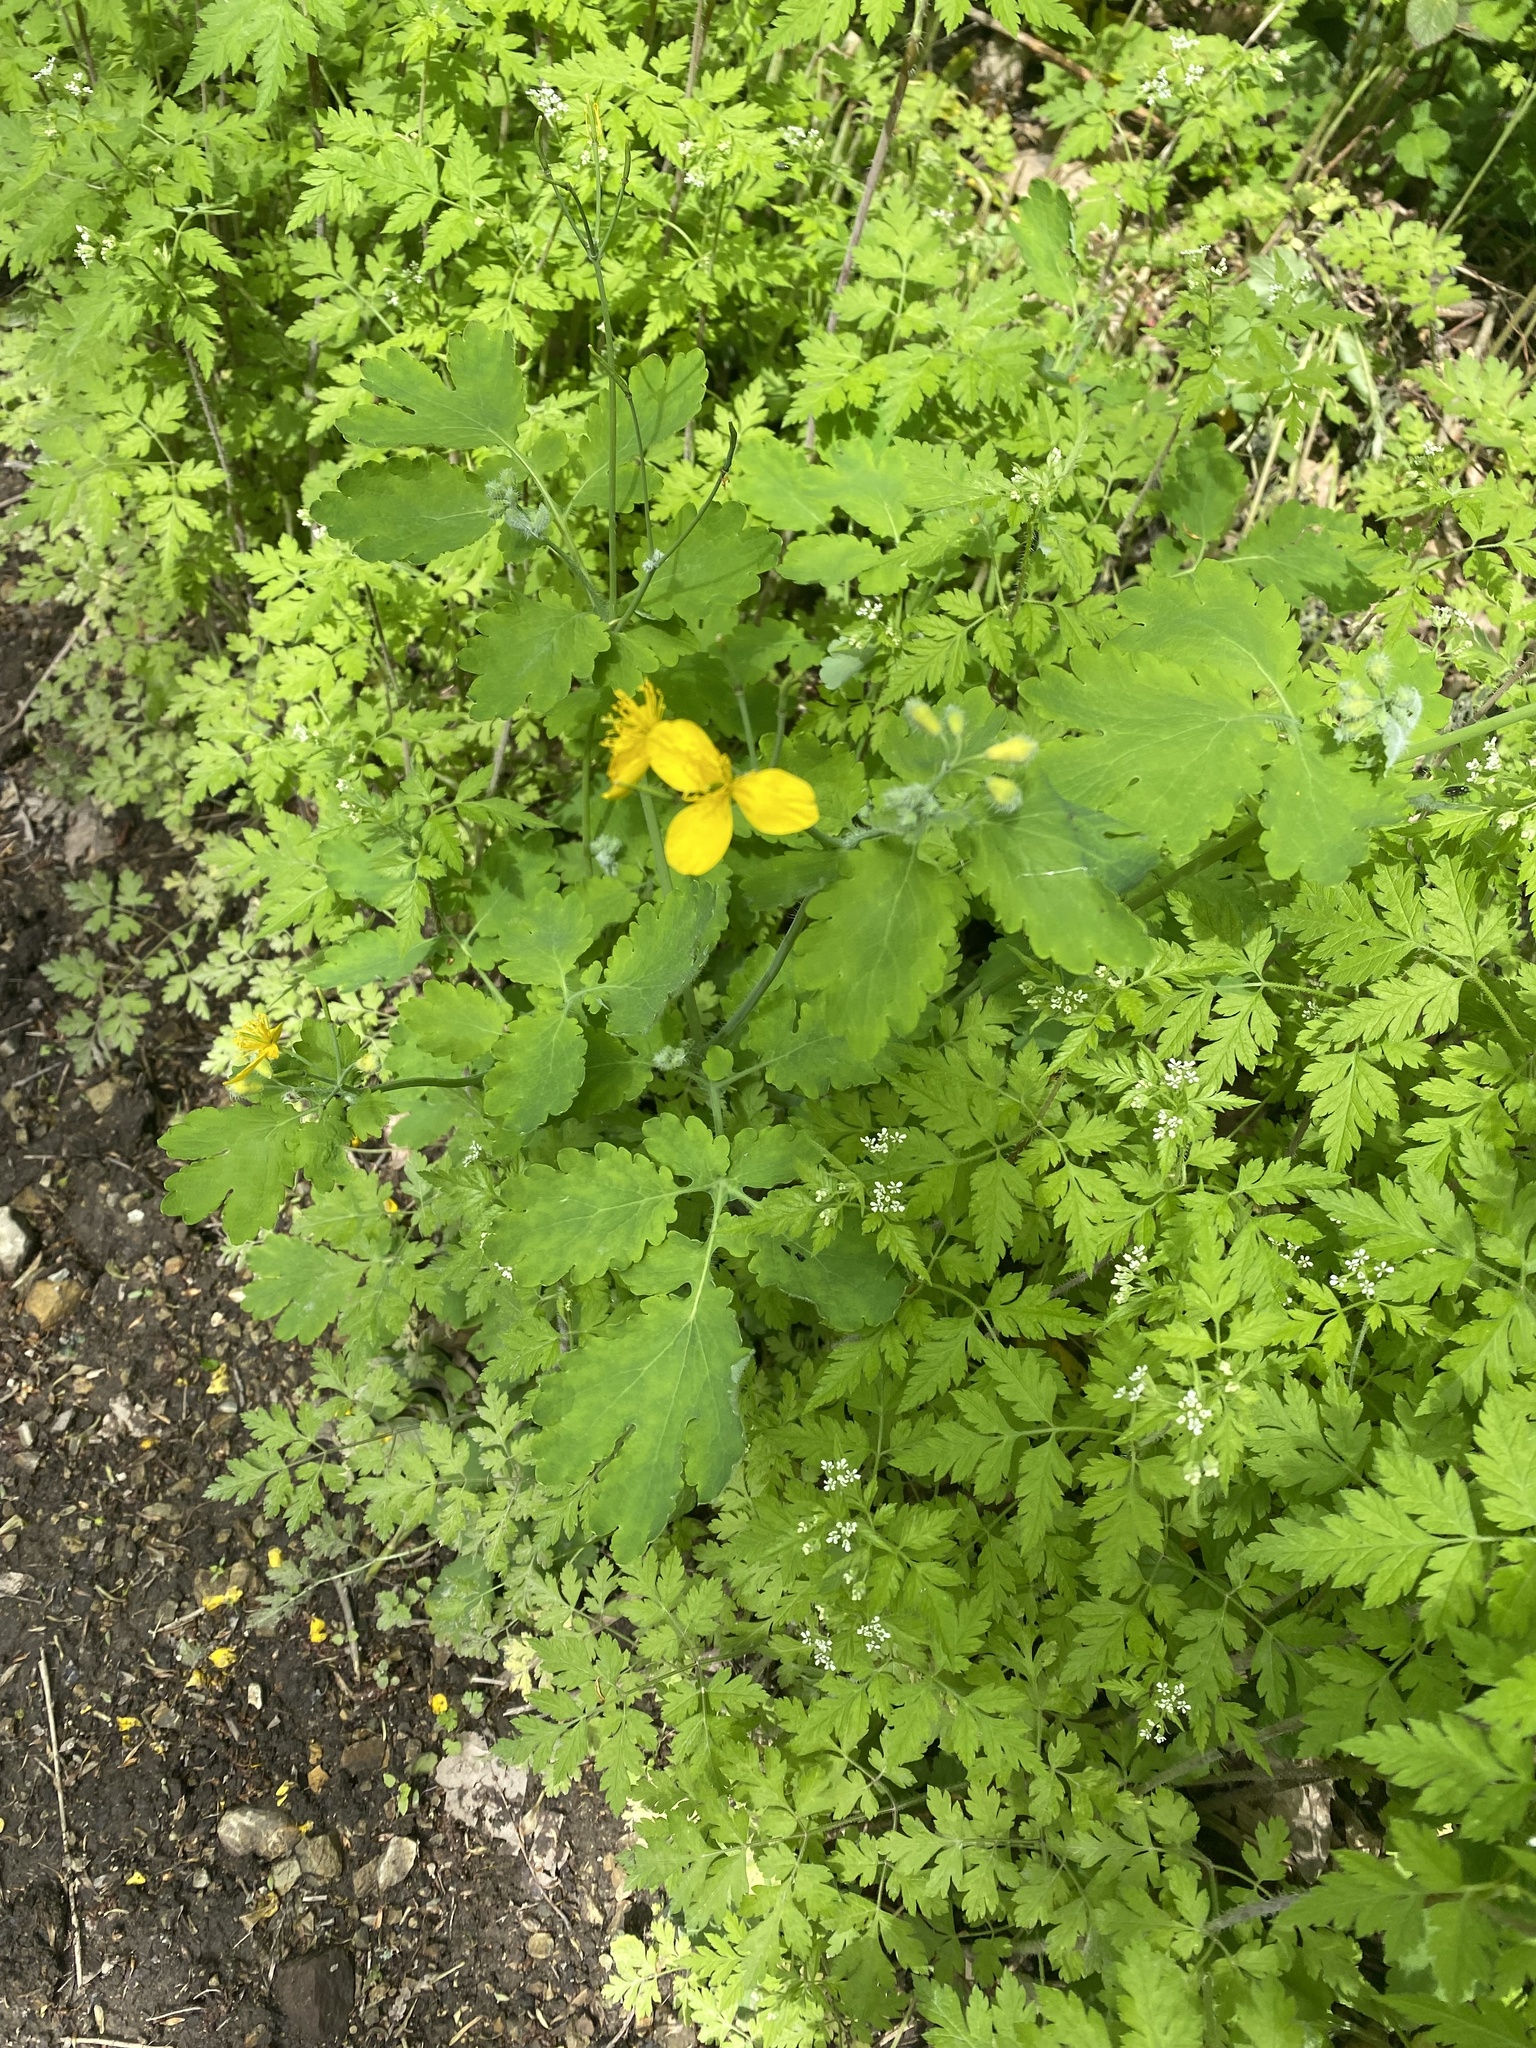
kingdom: Plantae
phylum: Tracheophyta
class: Magnoliopsida
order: Ranunculales
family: Papaveraceae
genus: Chelidonium
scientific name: Chelidonium majus
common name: Greater celandine
